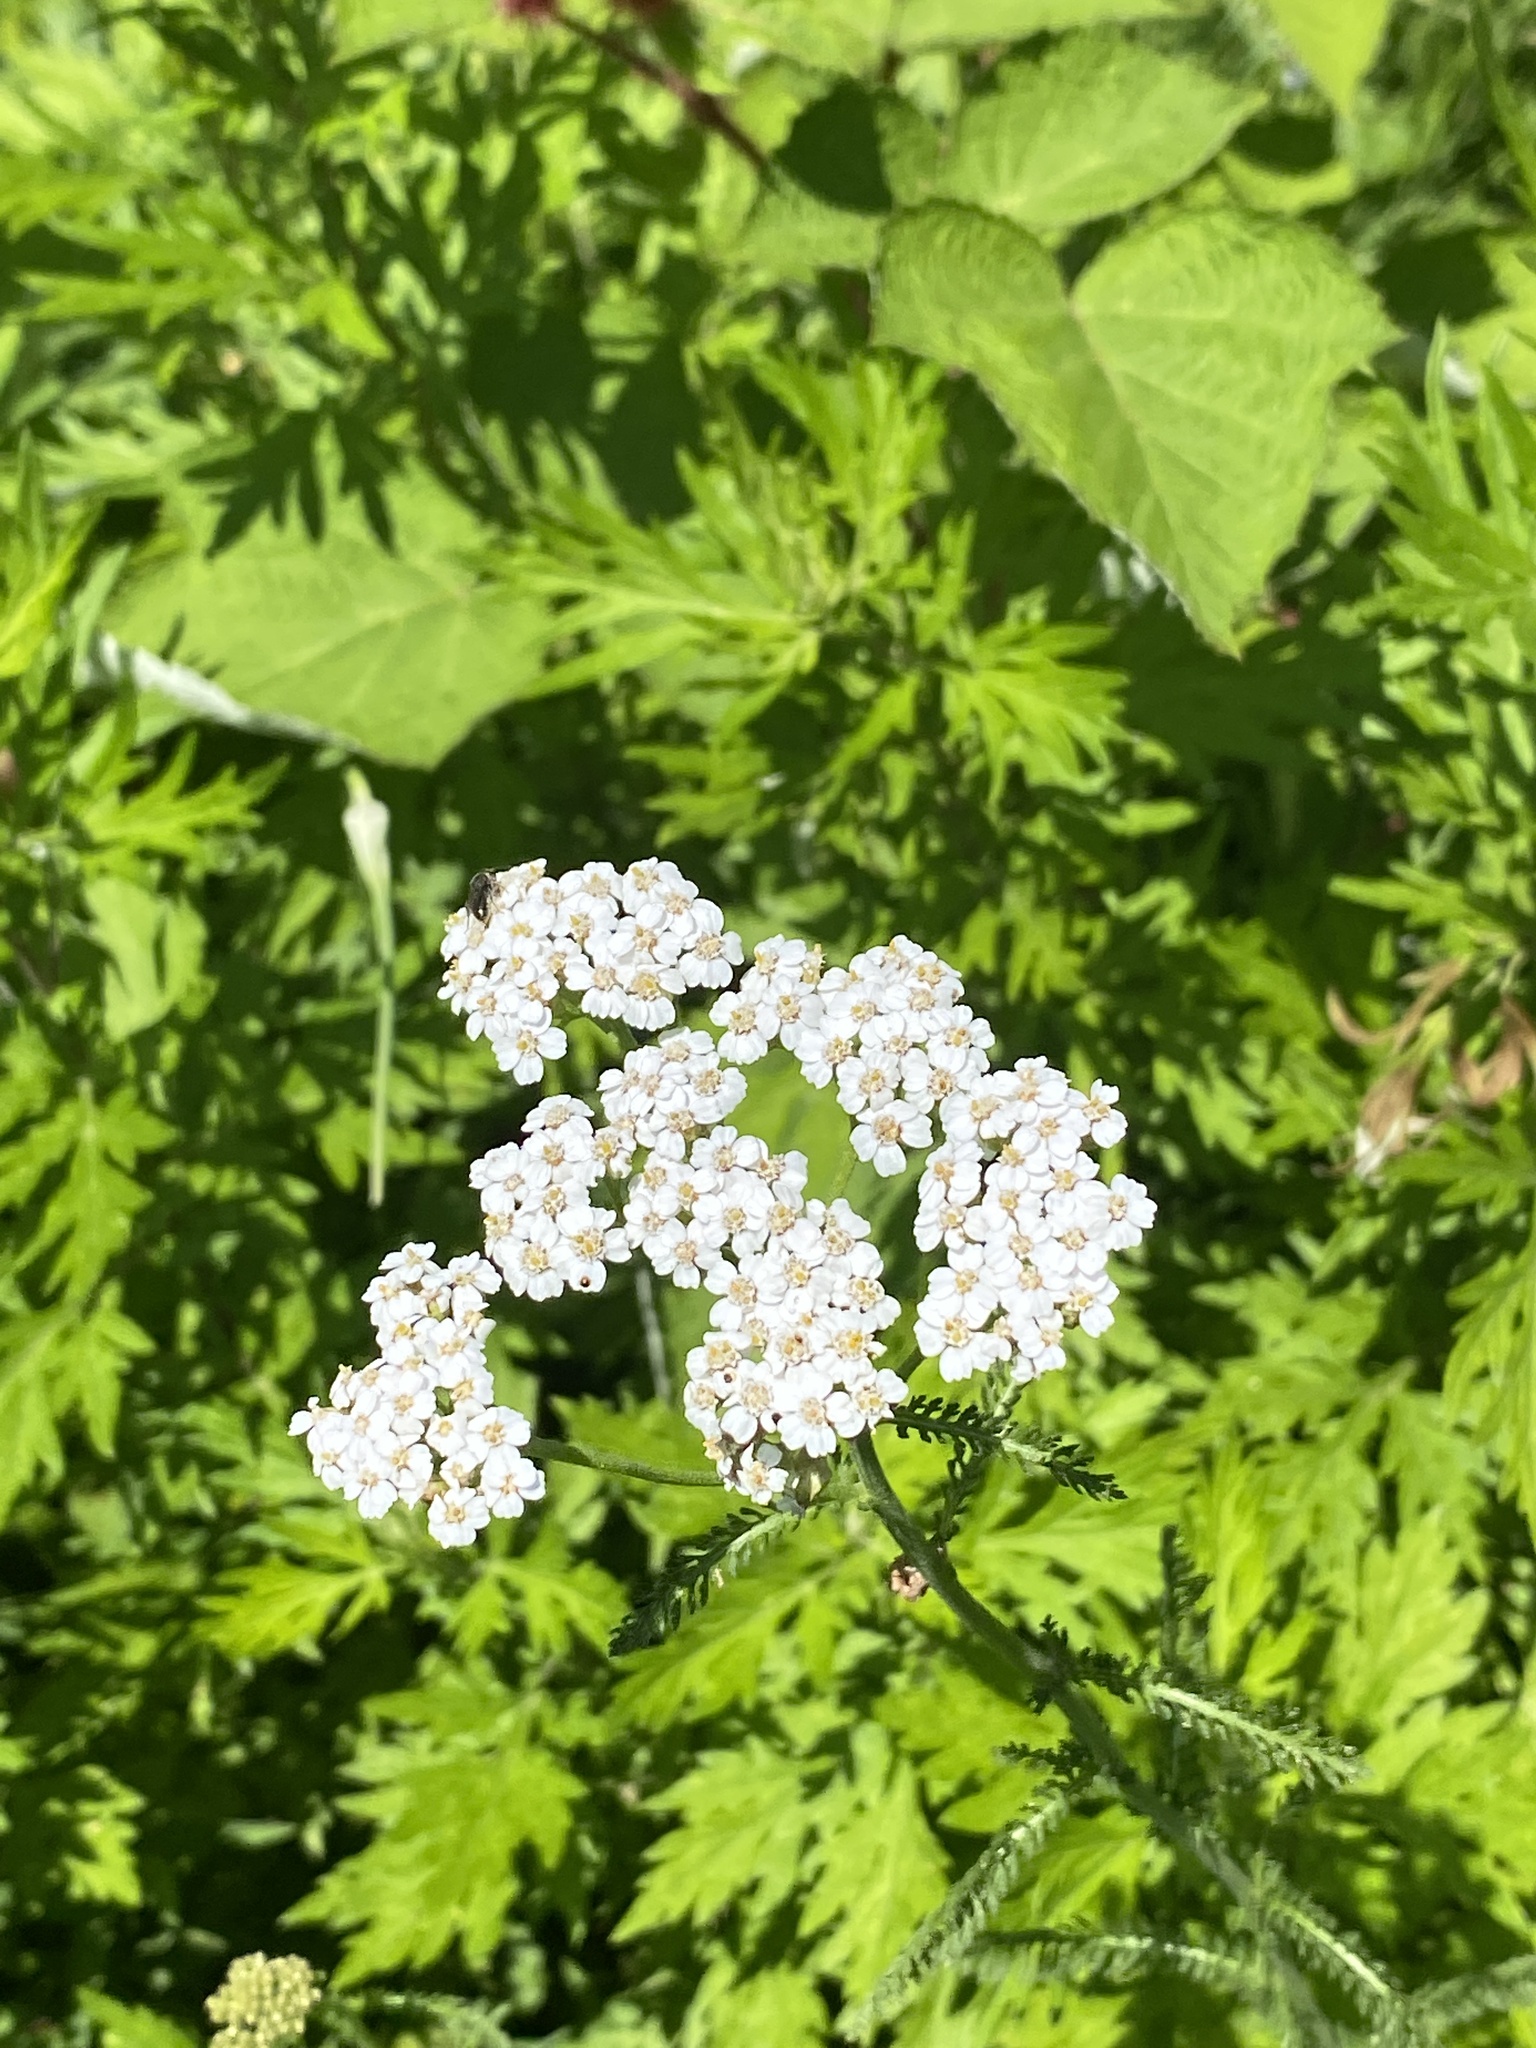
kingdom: Plantae
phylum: Tracheophyta
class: Magnoliopsida
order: Asterales
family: Asteraceae
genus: Achillea
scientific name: Achillea millefolium
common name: Yarrow
